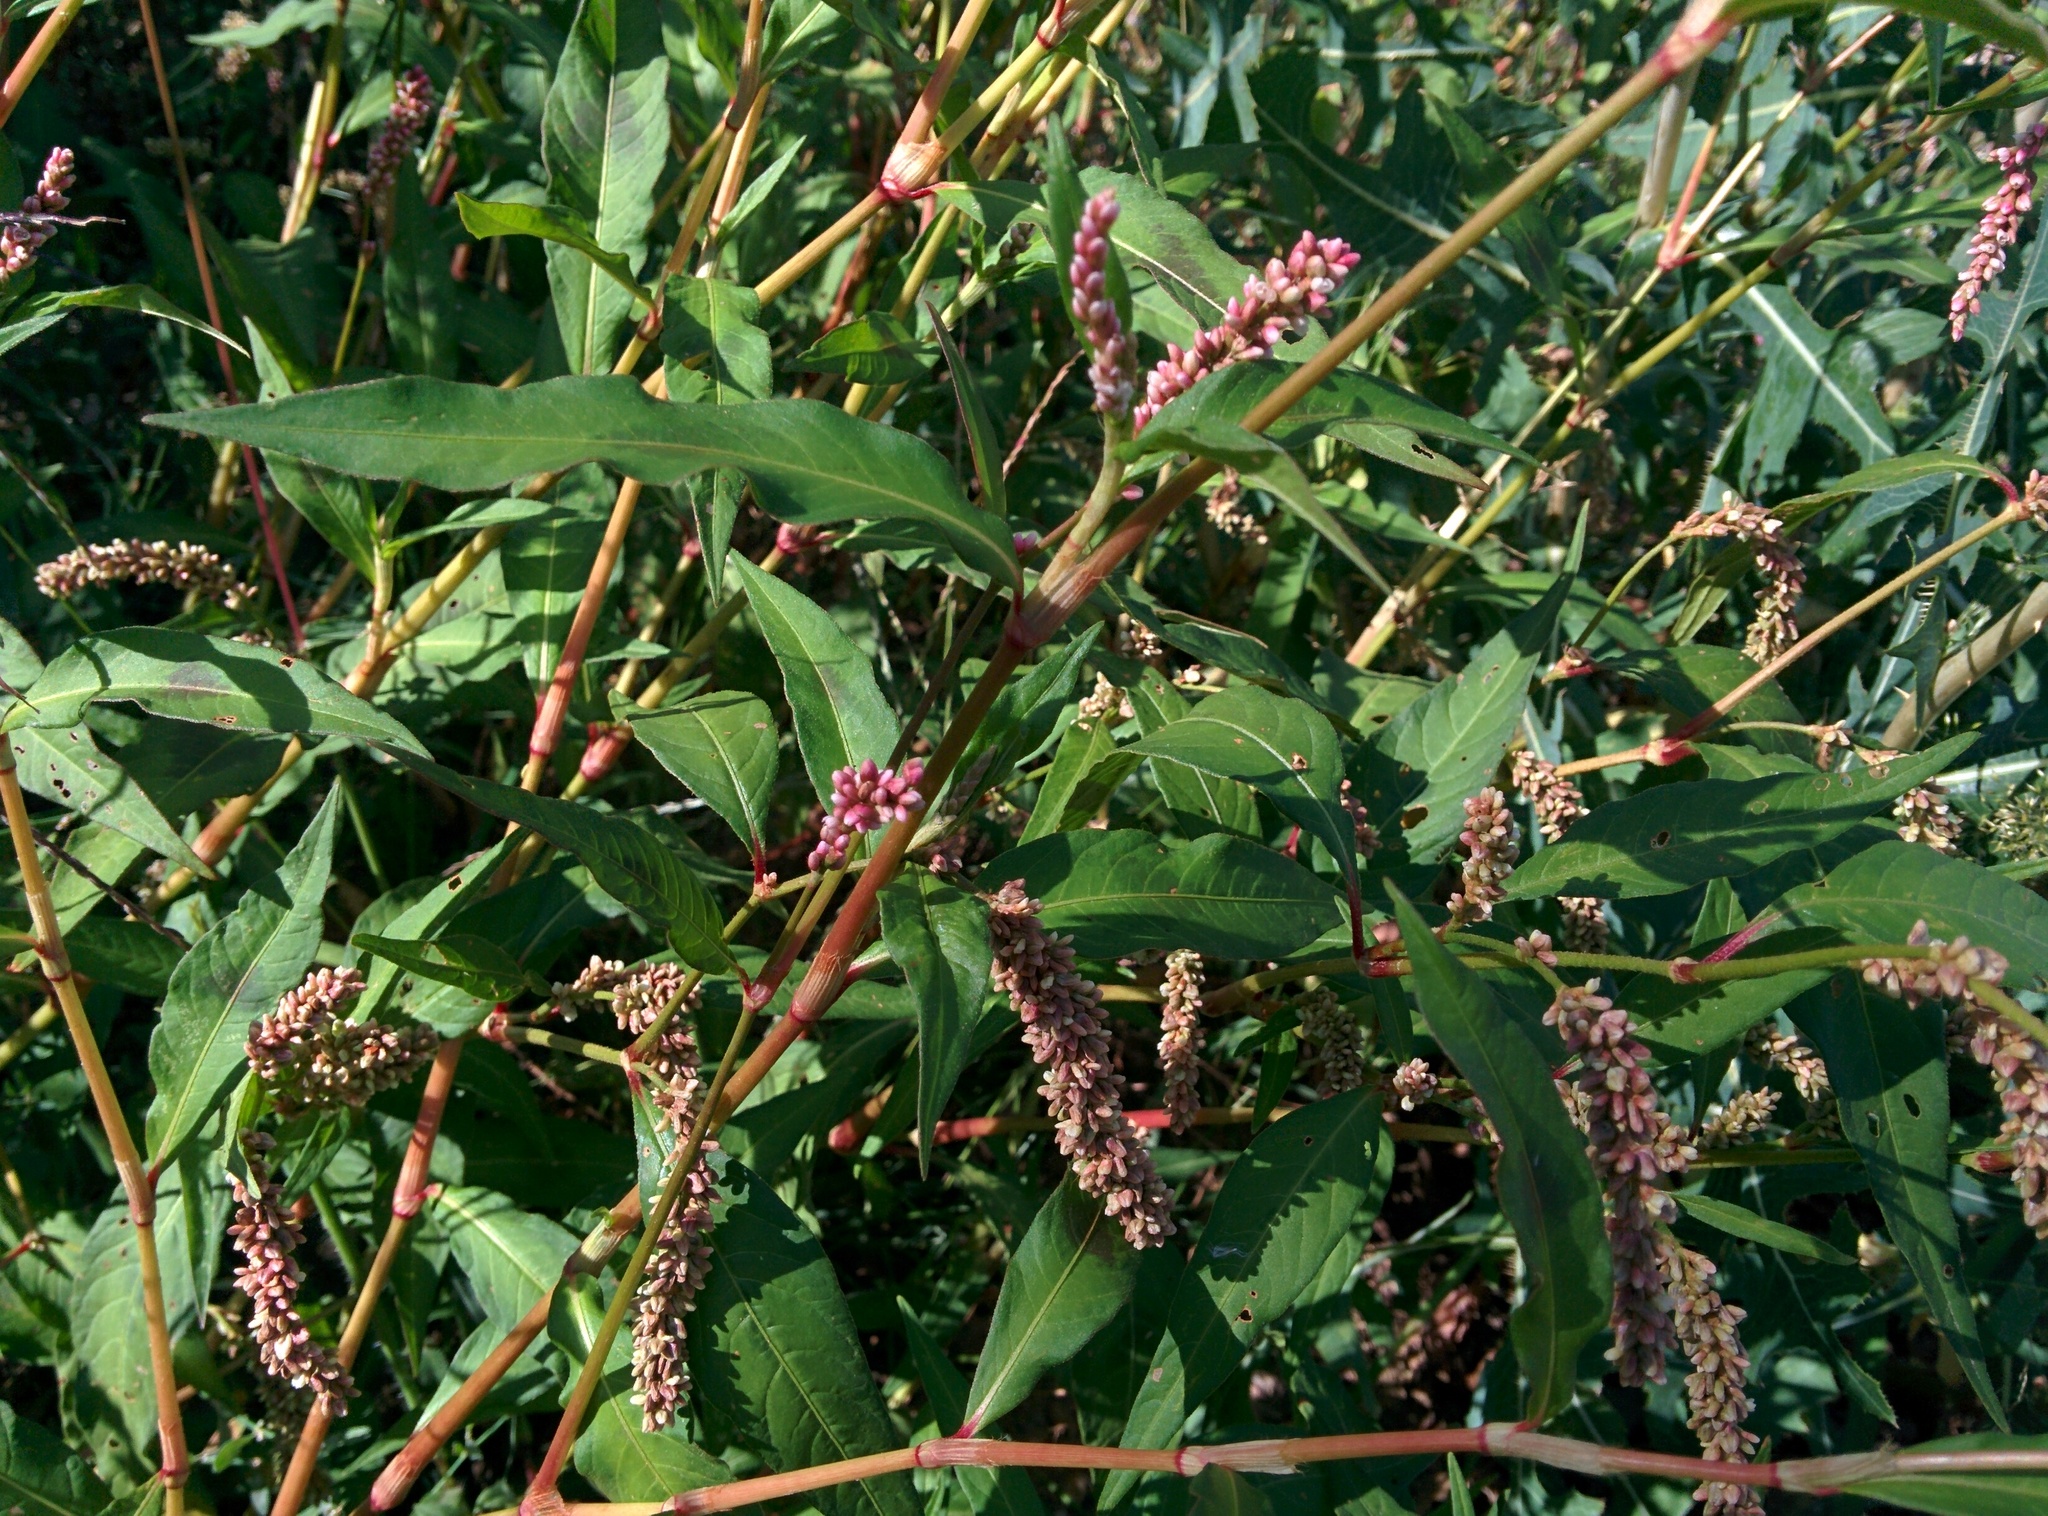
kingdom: Plantae
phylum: Tracheophyta
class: Magnoliopsida
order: Caryophyllales
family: Polygonaceae
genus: Persicaria
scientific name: Persicaria maculosa
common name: Redshank
